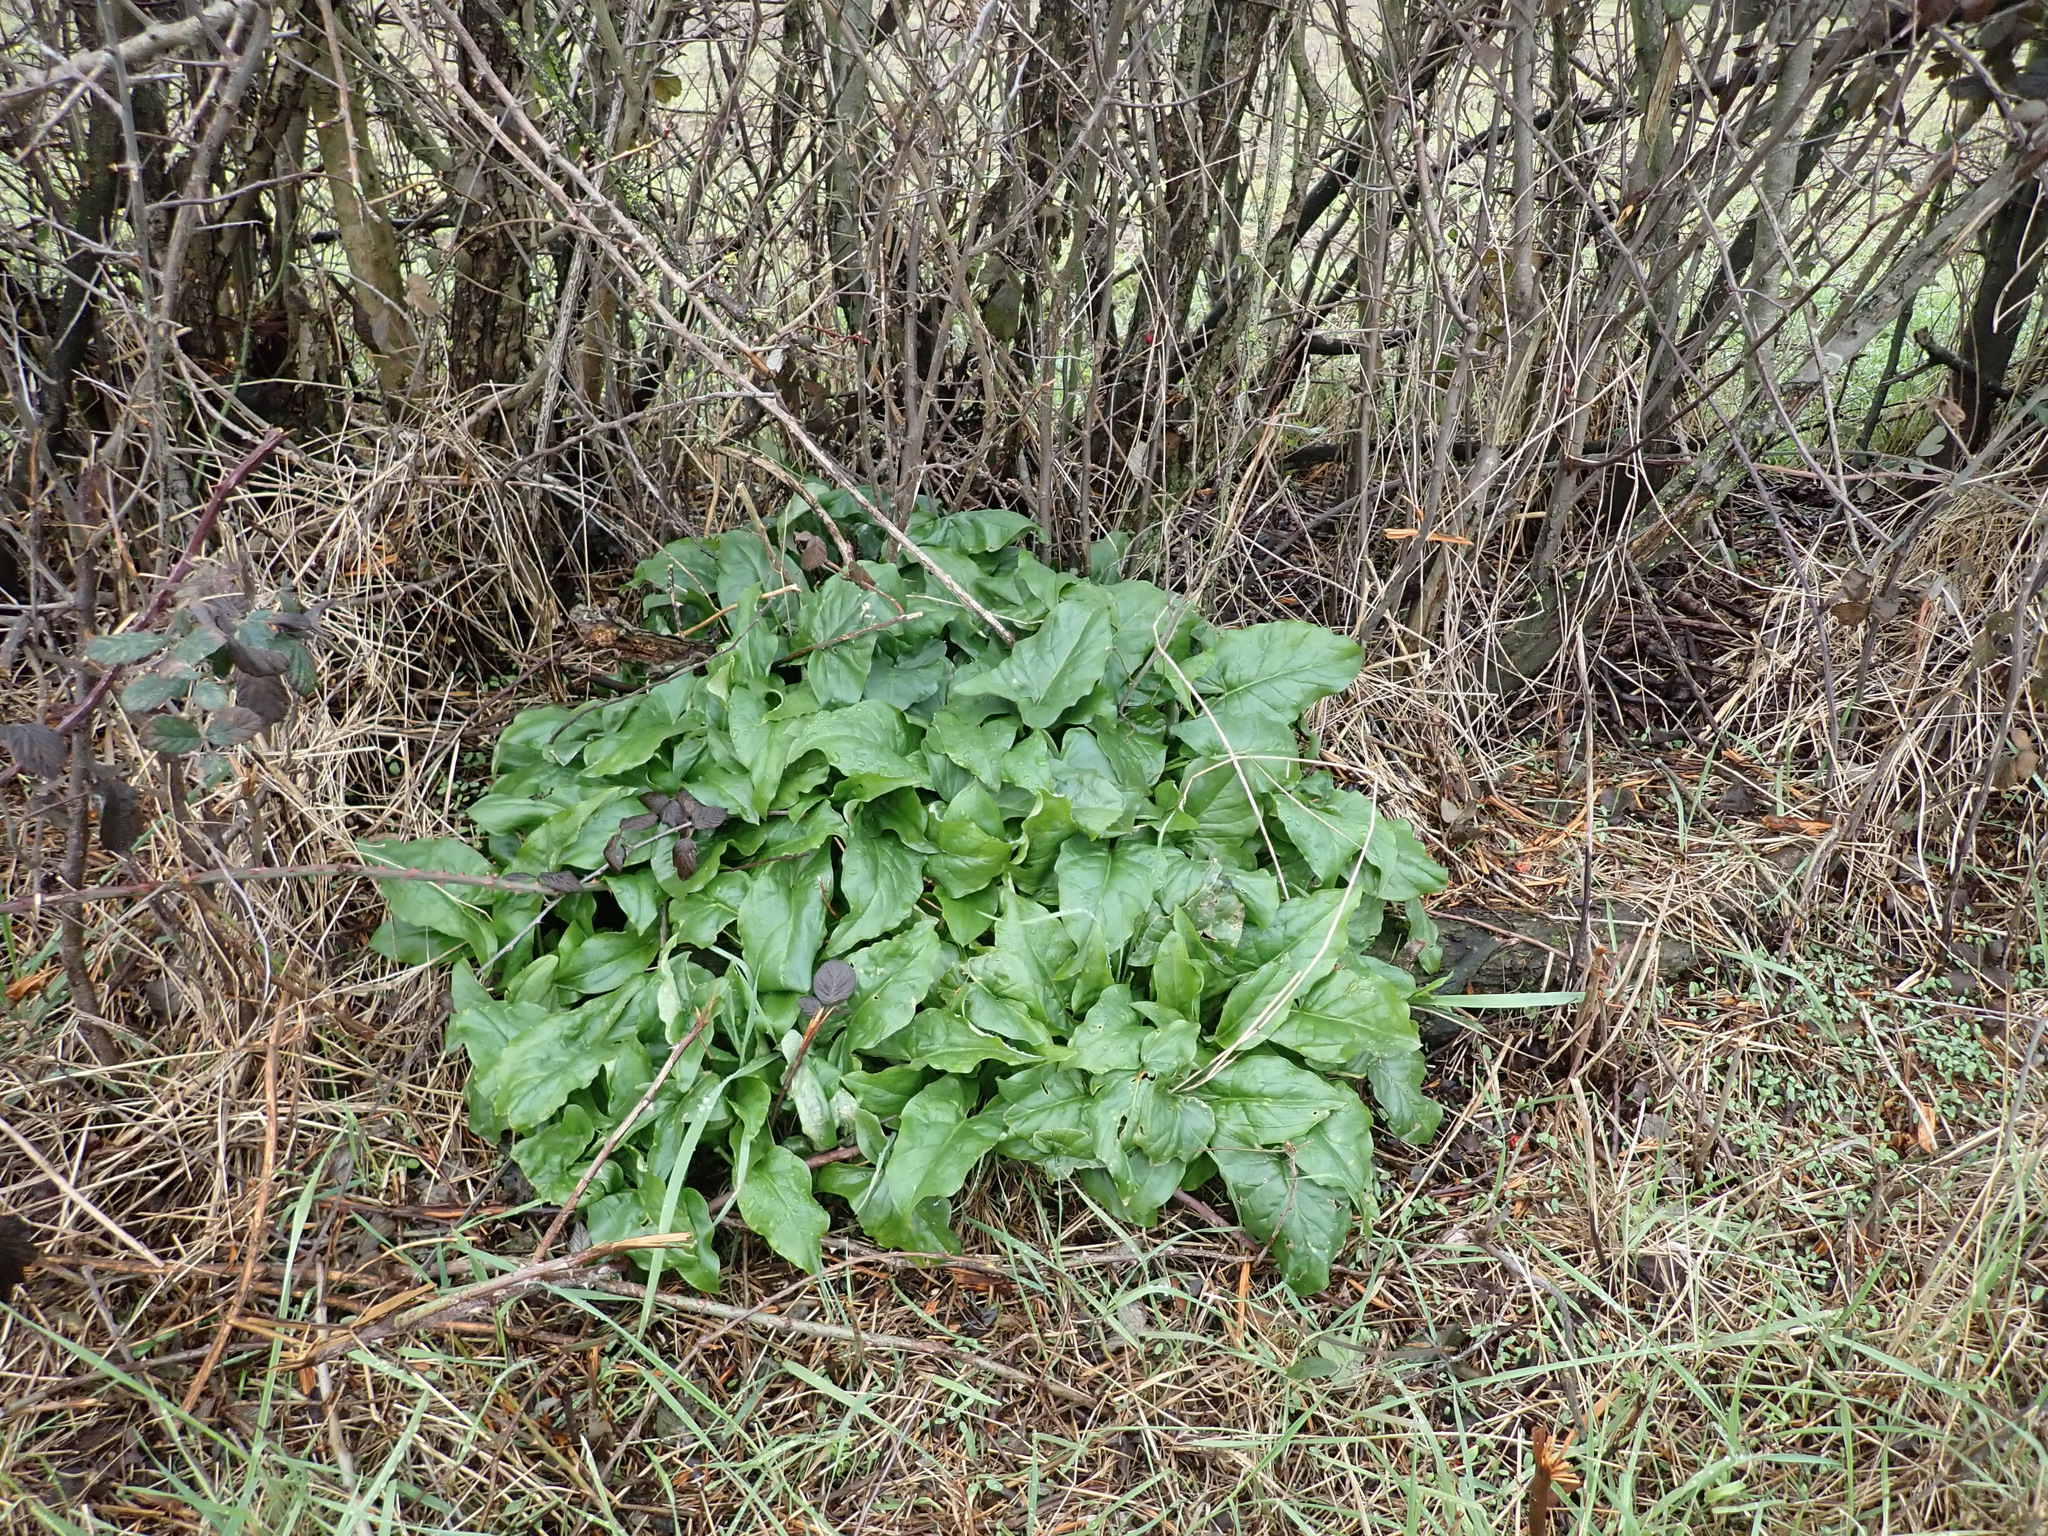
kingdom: Plantae
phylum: Tracheophyta
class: Liliopsida
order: Alismatales
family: Araceae
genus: Arum
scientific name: Arum maculatum
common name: Lords-and-ladies
